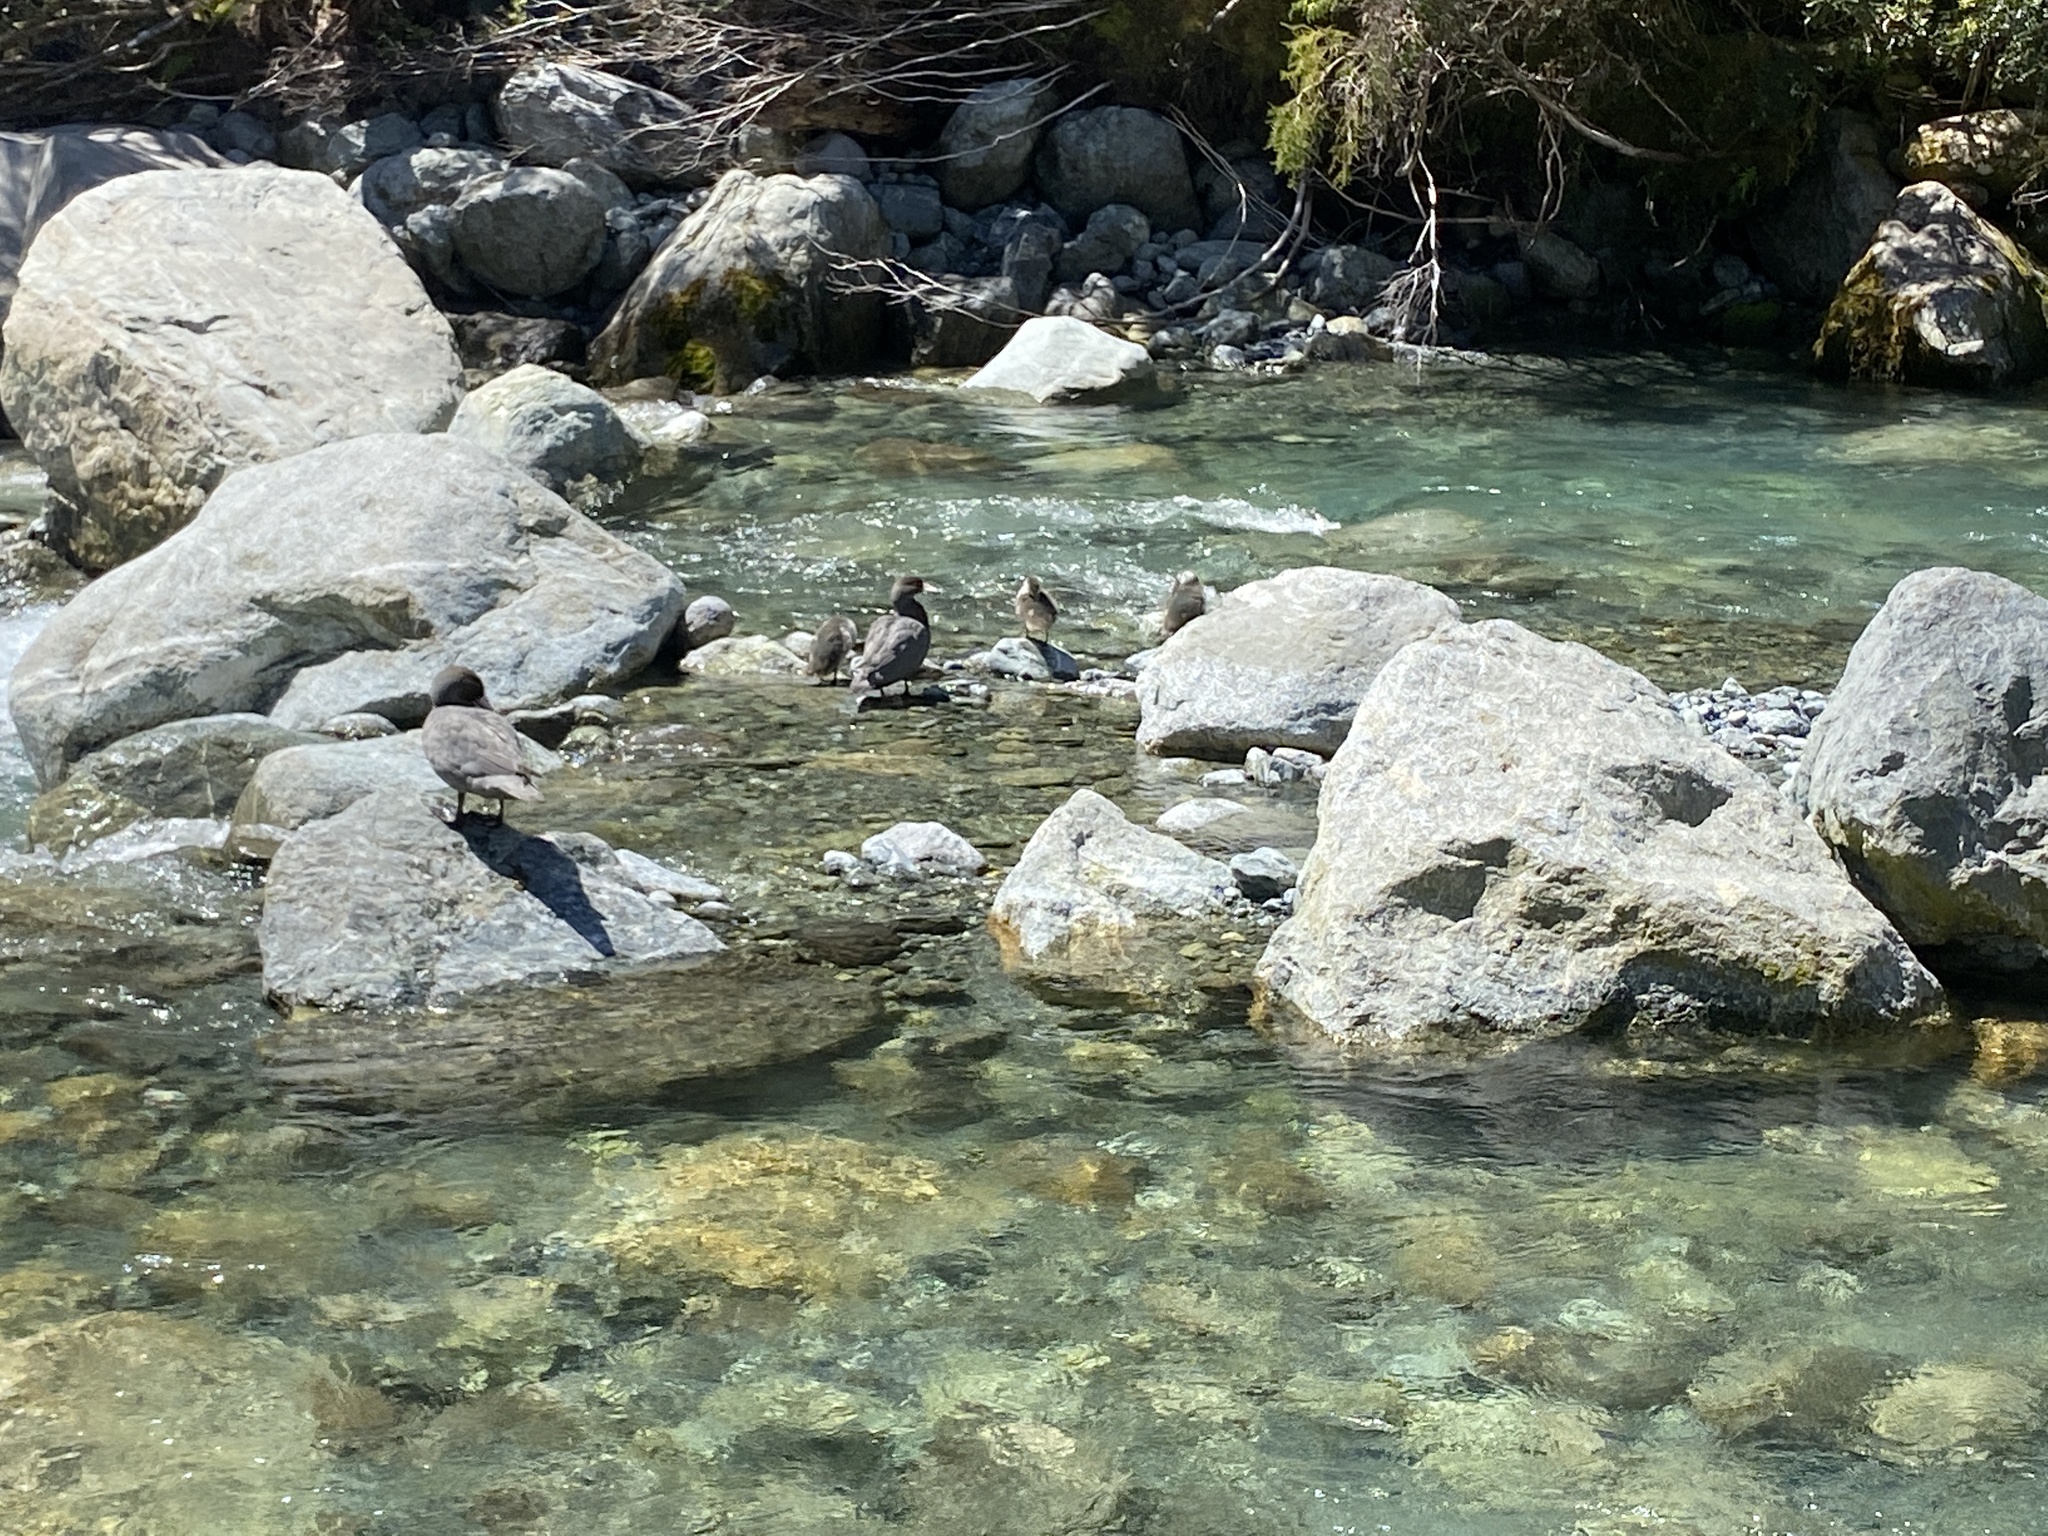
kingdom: Animalia
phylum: Chordata
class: Aves
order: Anseriformes
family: Anatidae
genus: Hymenolaimus
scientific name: Hymenolaimus malacorhynchos
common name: Blue duck
